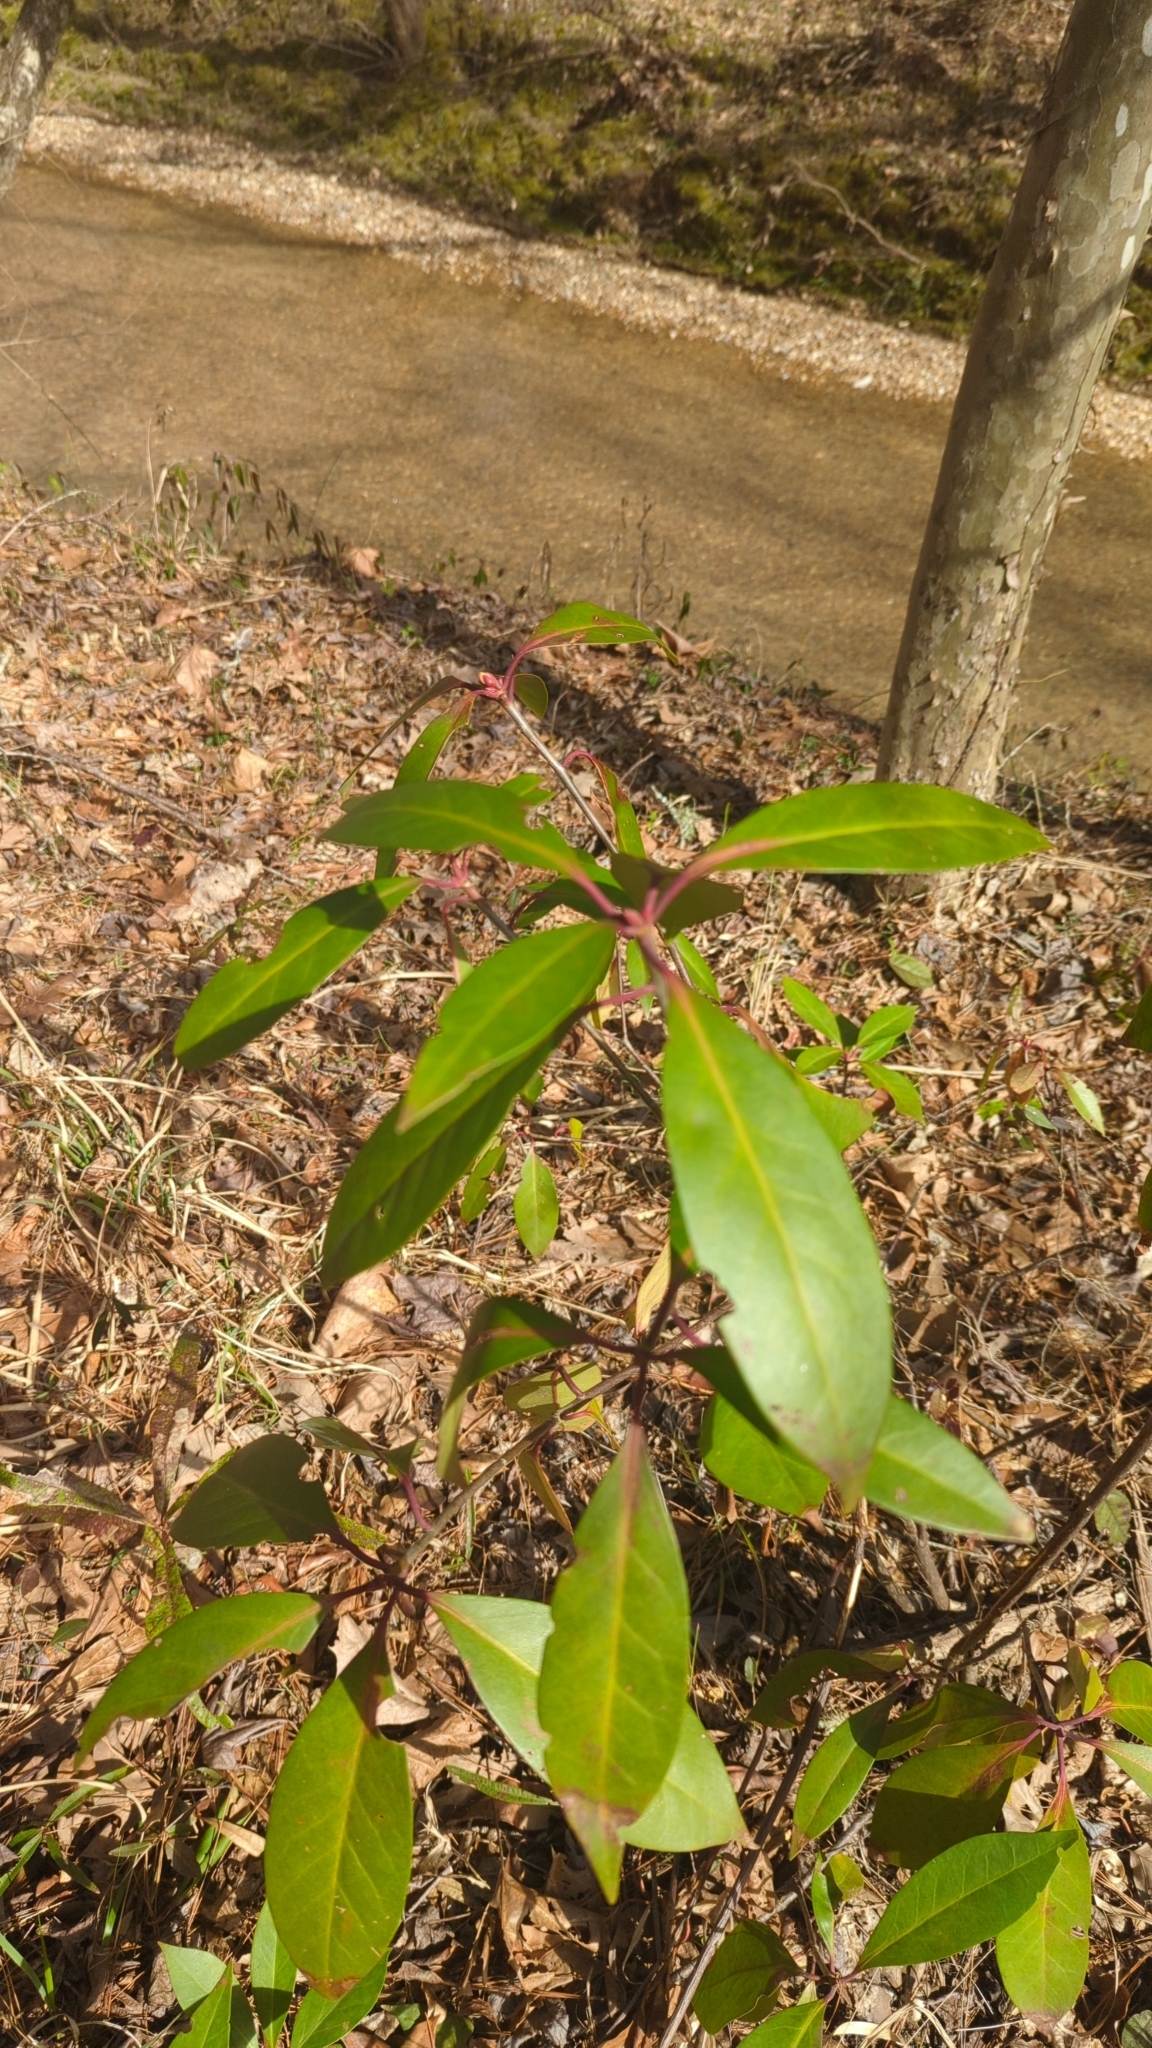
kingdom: Plantae
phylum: Tracheophyta
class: Magnoliopsida
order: Austrobaileyales
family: Schisandraceae
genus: Illicium
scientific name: Illicium floridanum
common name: Florida anisetree
